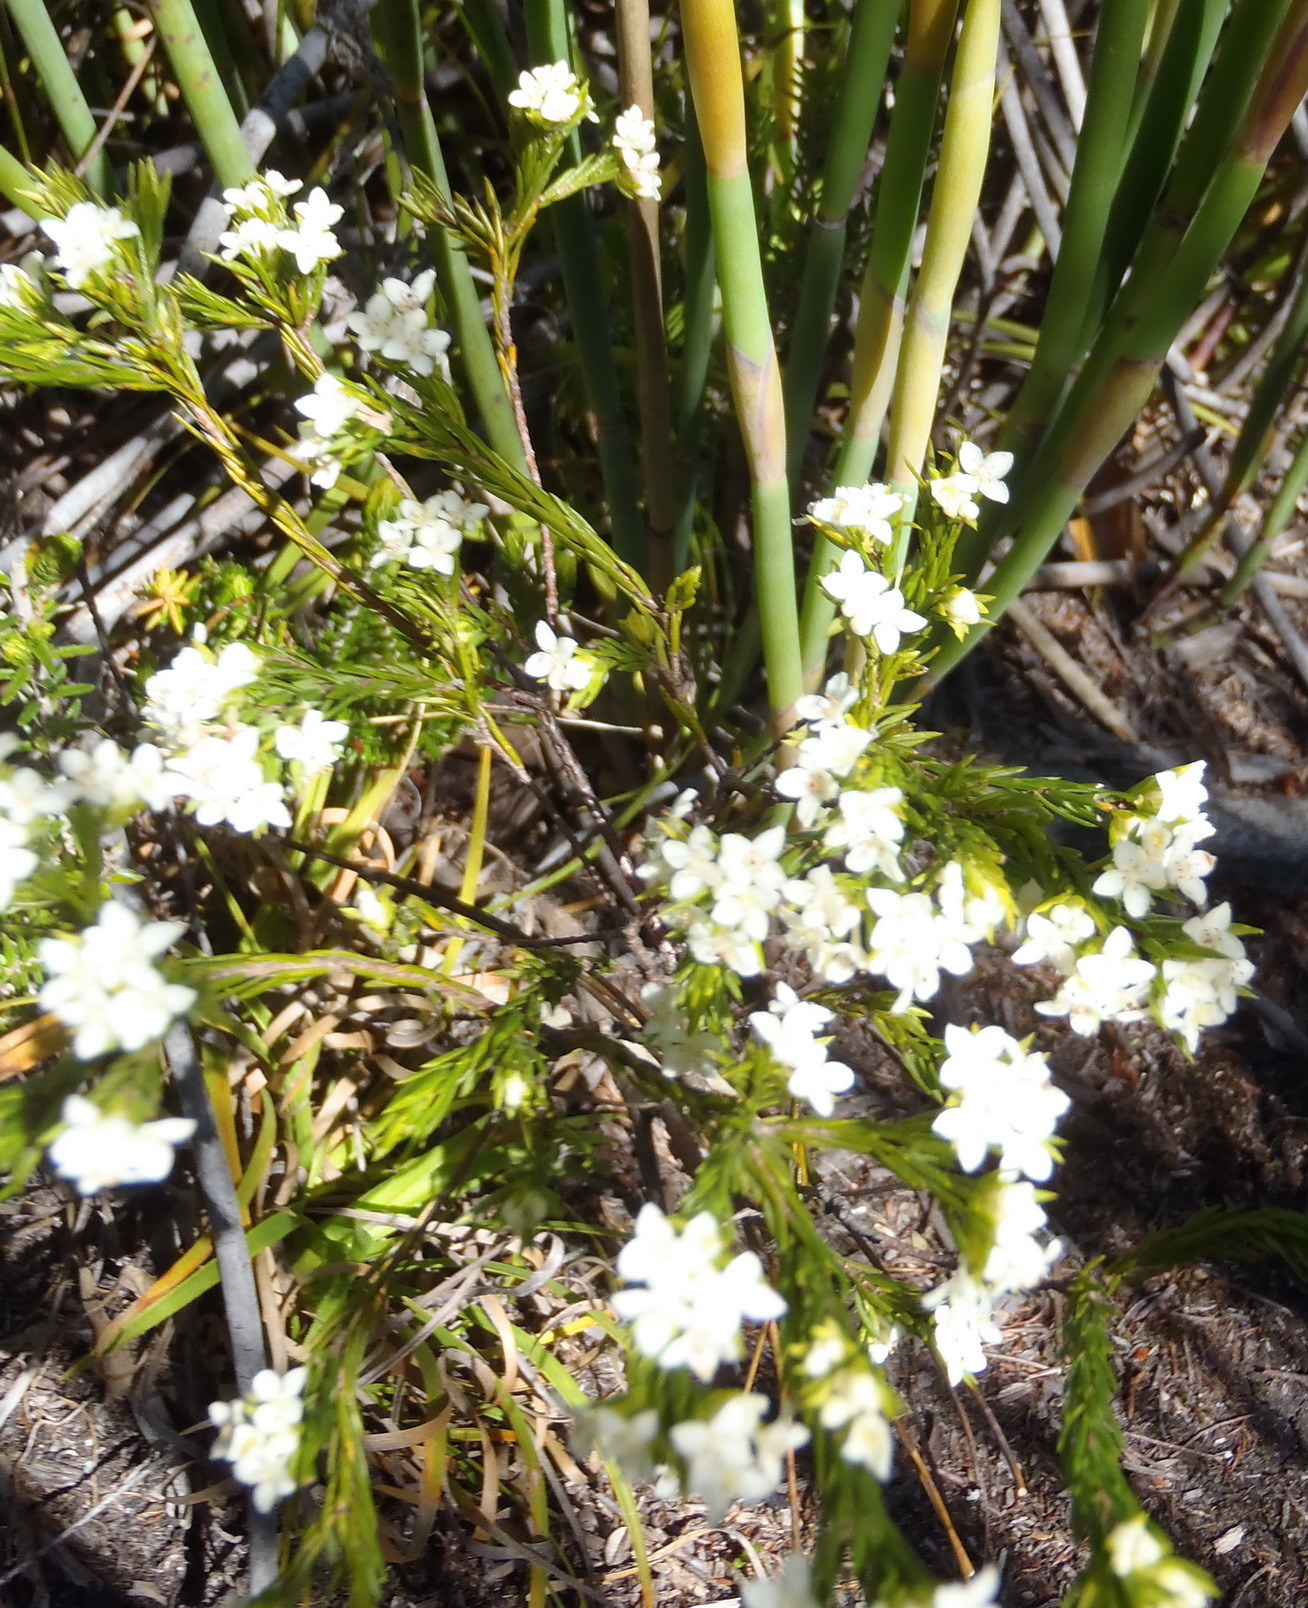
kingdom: Plantae
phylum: Tracheophyta
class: Magnoliopsida
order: Malvales
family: Thymelaeaceae
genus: Lachnaea
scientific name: Lachnaea diosmoides
